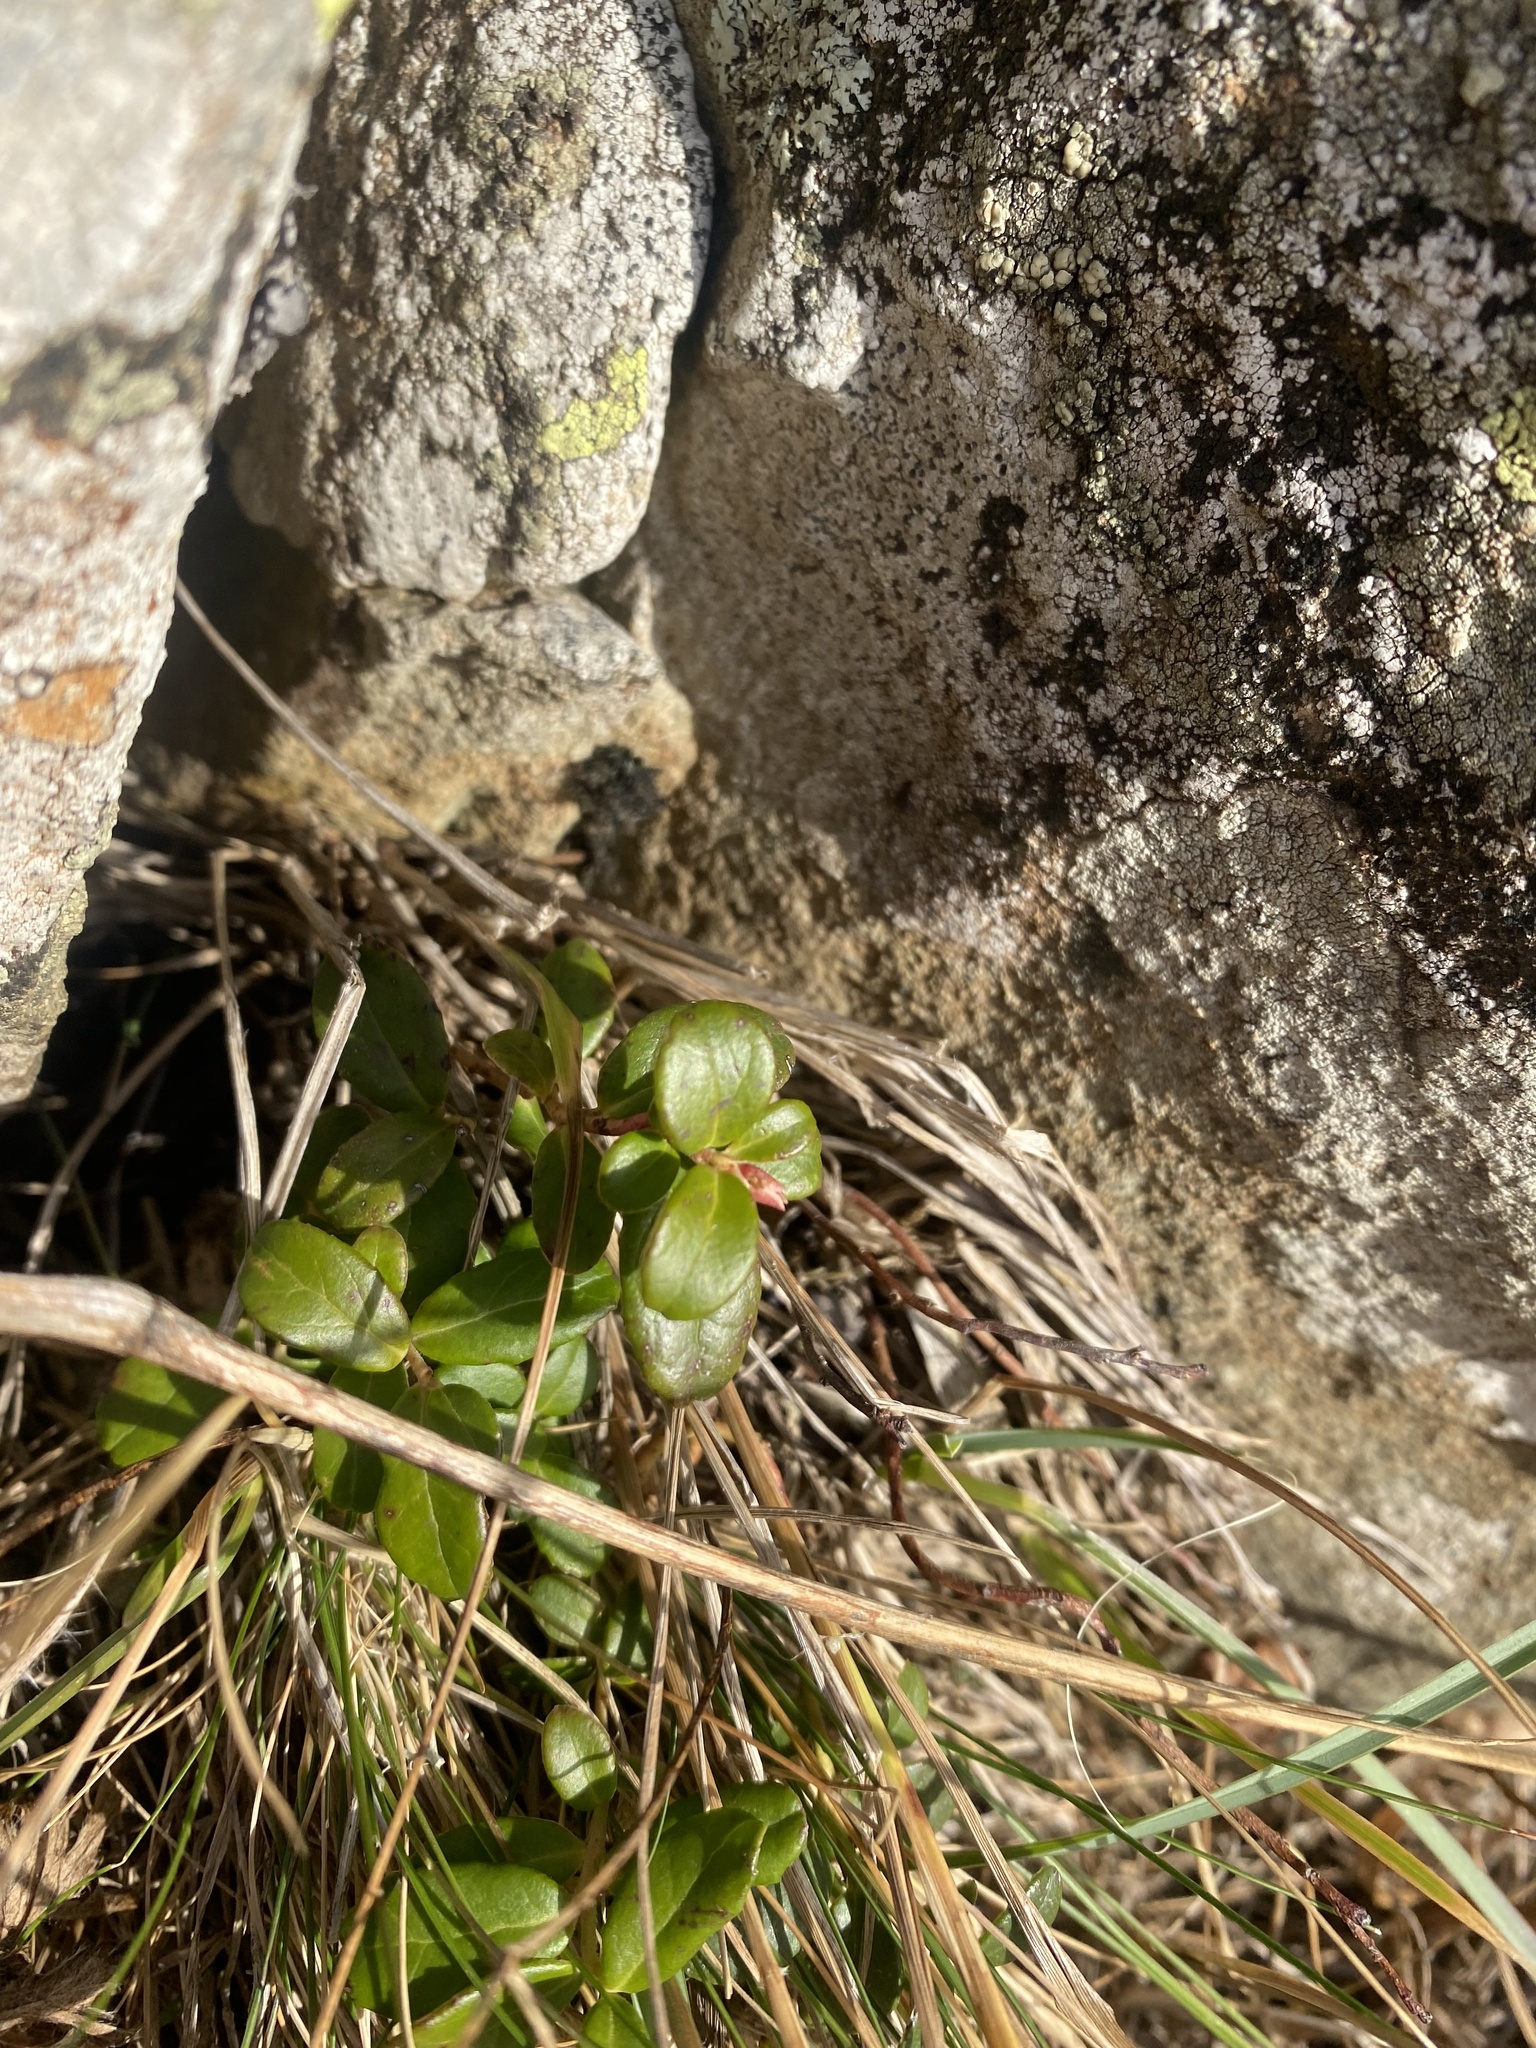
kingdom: Plantae
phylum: Tracheophyta
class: Magnoliopsida
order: Ericales
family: Ericaceae
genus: Vaccinium
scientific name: Vaccinium vitis-idaea
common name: Cowberry
